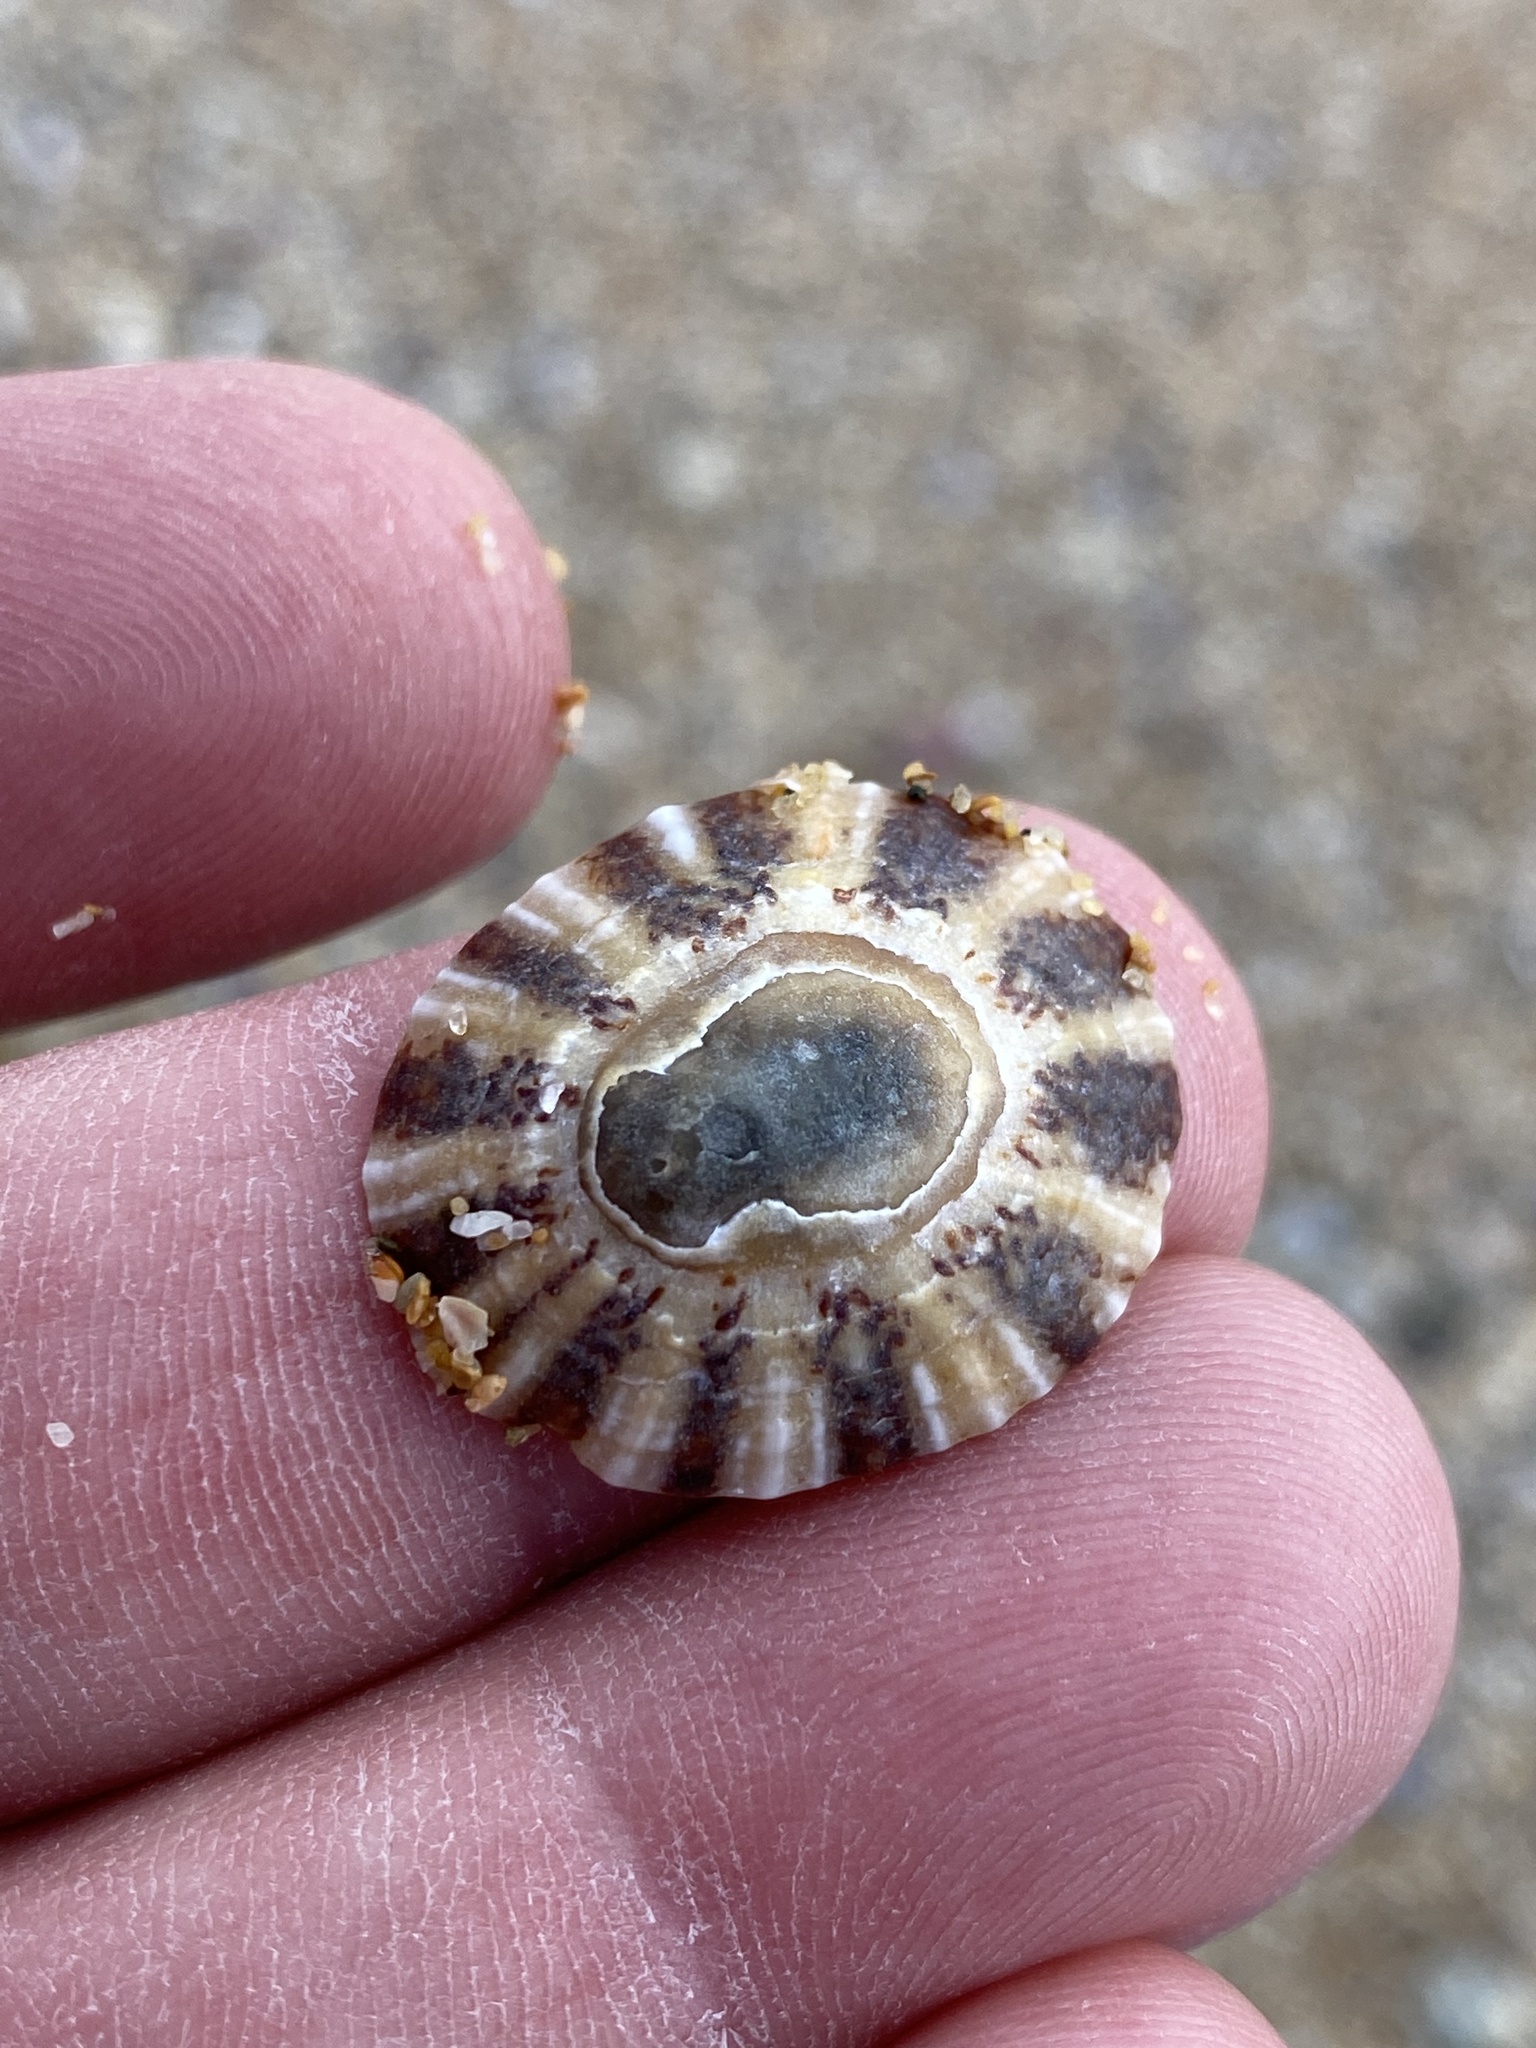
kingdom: Animalia
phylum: Mollusca
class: Gastropoda
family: Nacellidae
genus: Cellana
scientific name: Cellana tramoserica
